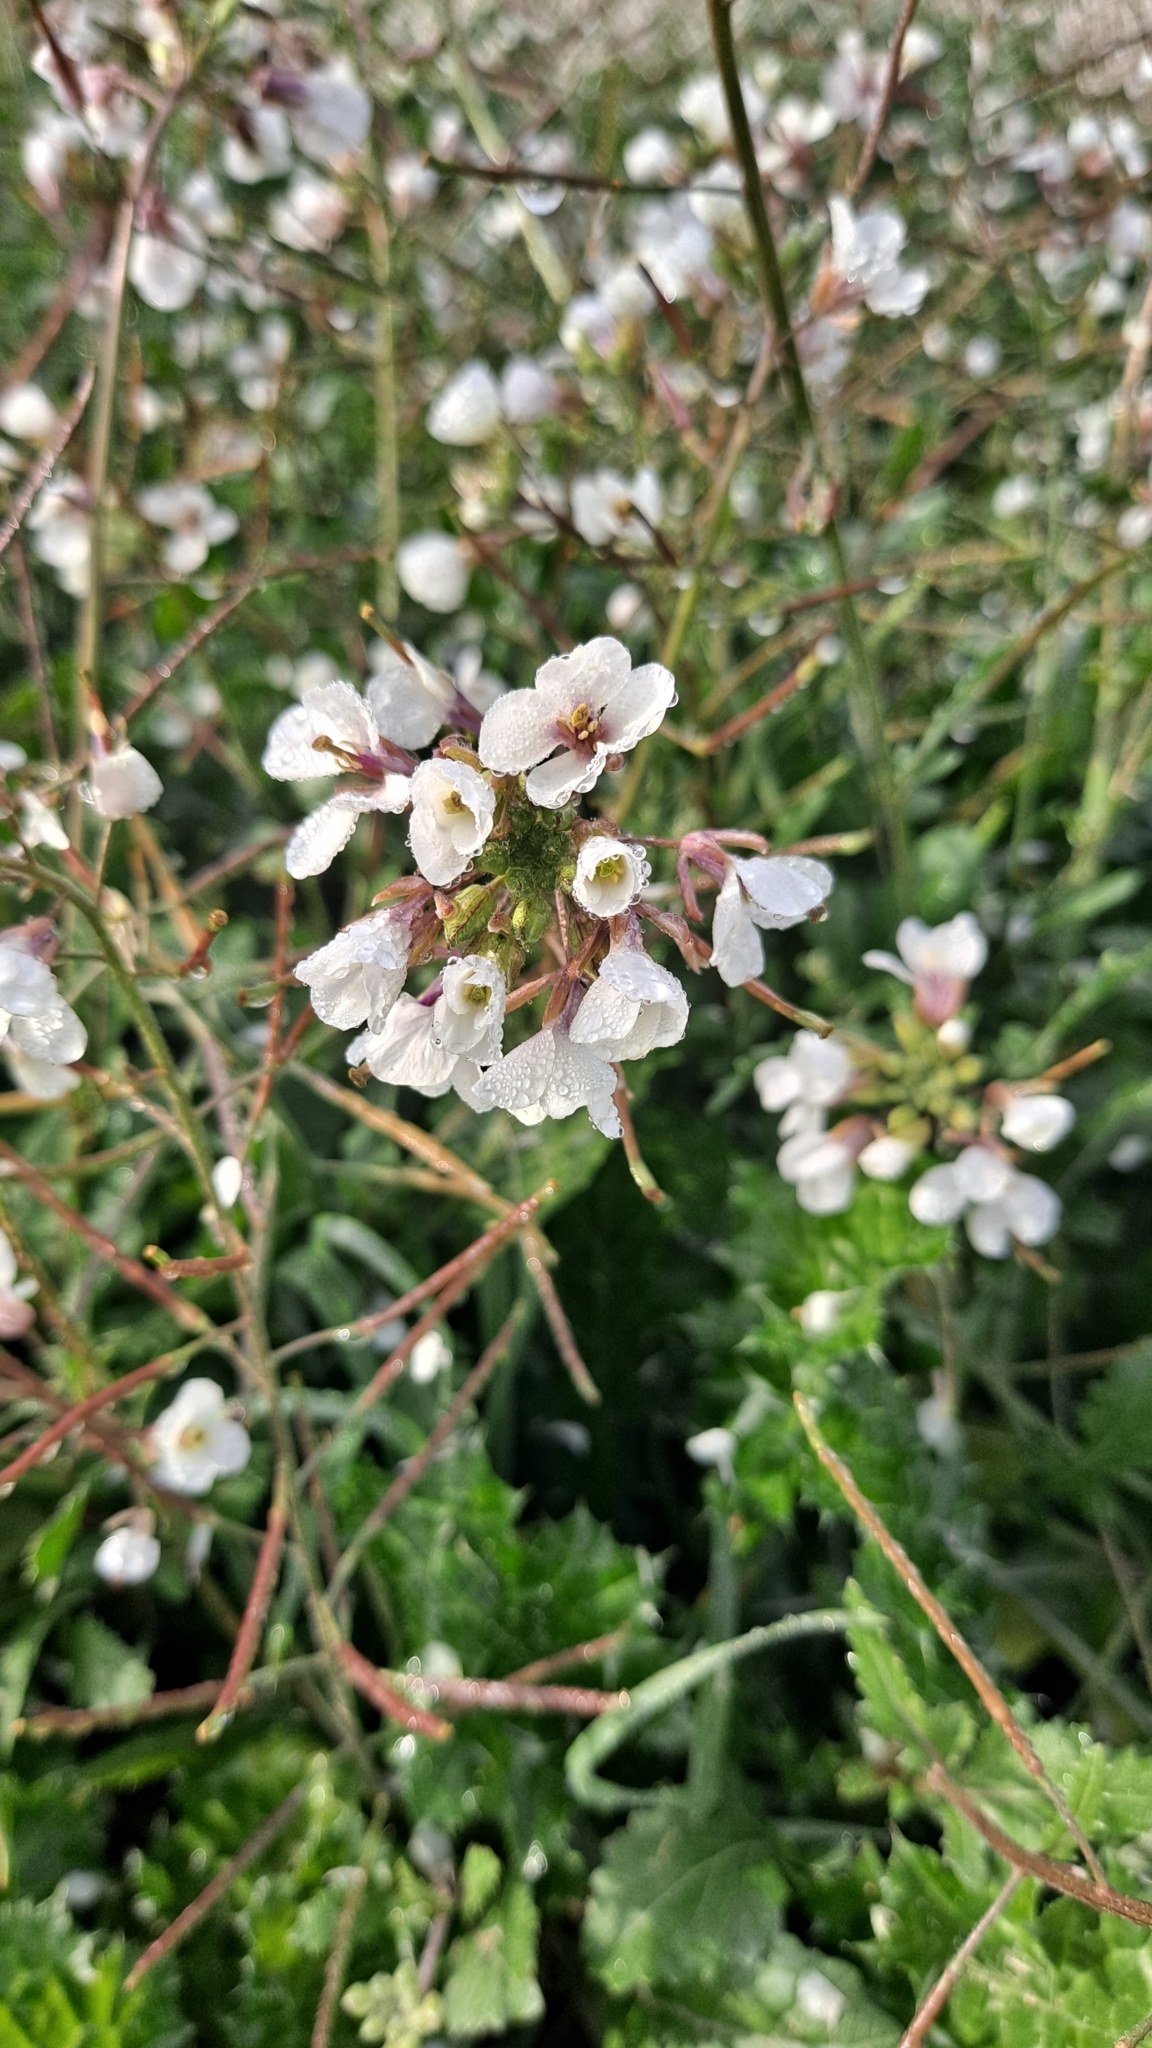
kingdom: Plantae
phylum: Tracheophyta
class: Magnoliopsida
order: Brassicales
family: Brassicaceae
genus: Diplotaxis
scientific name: Diplotaxis erucoides
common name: White rocket
